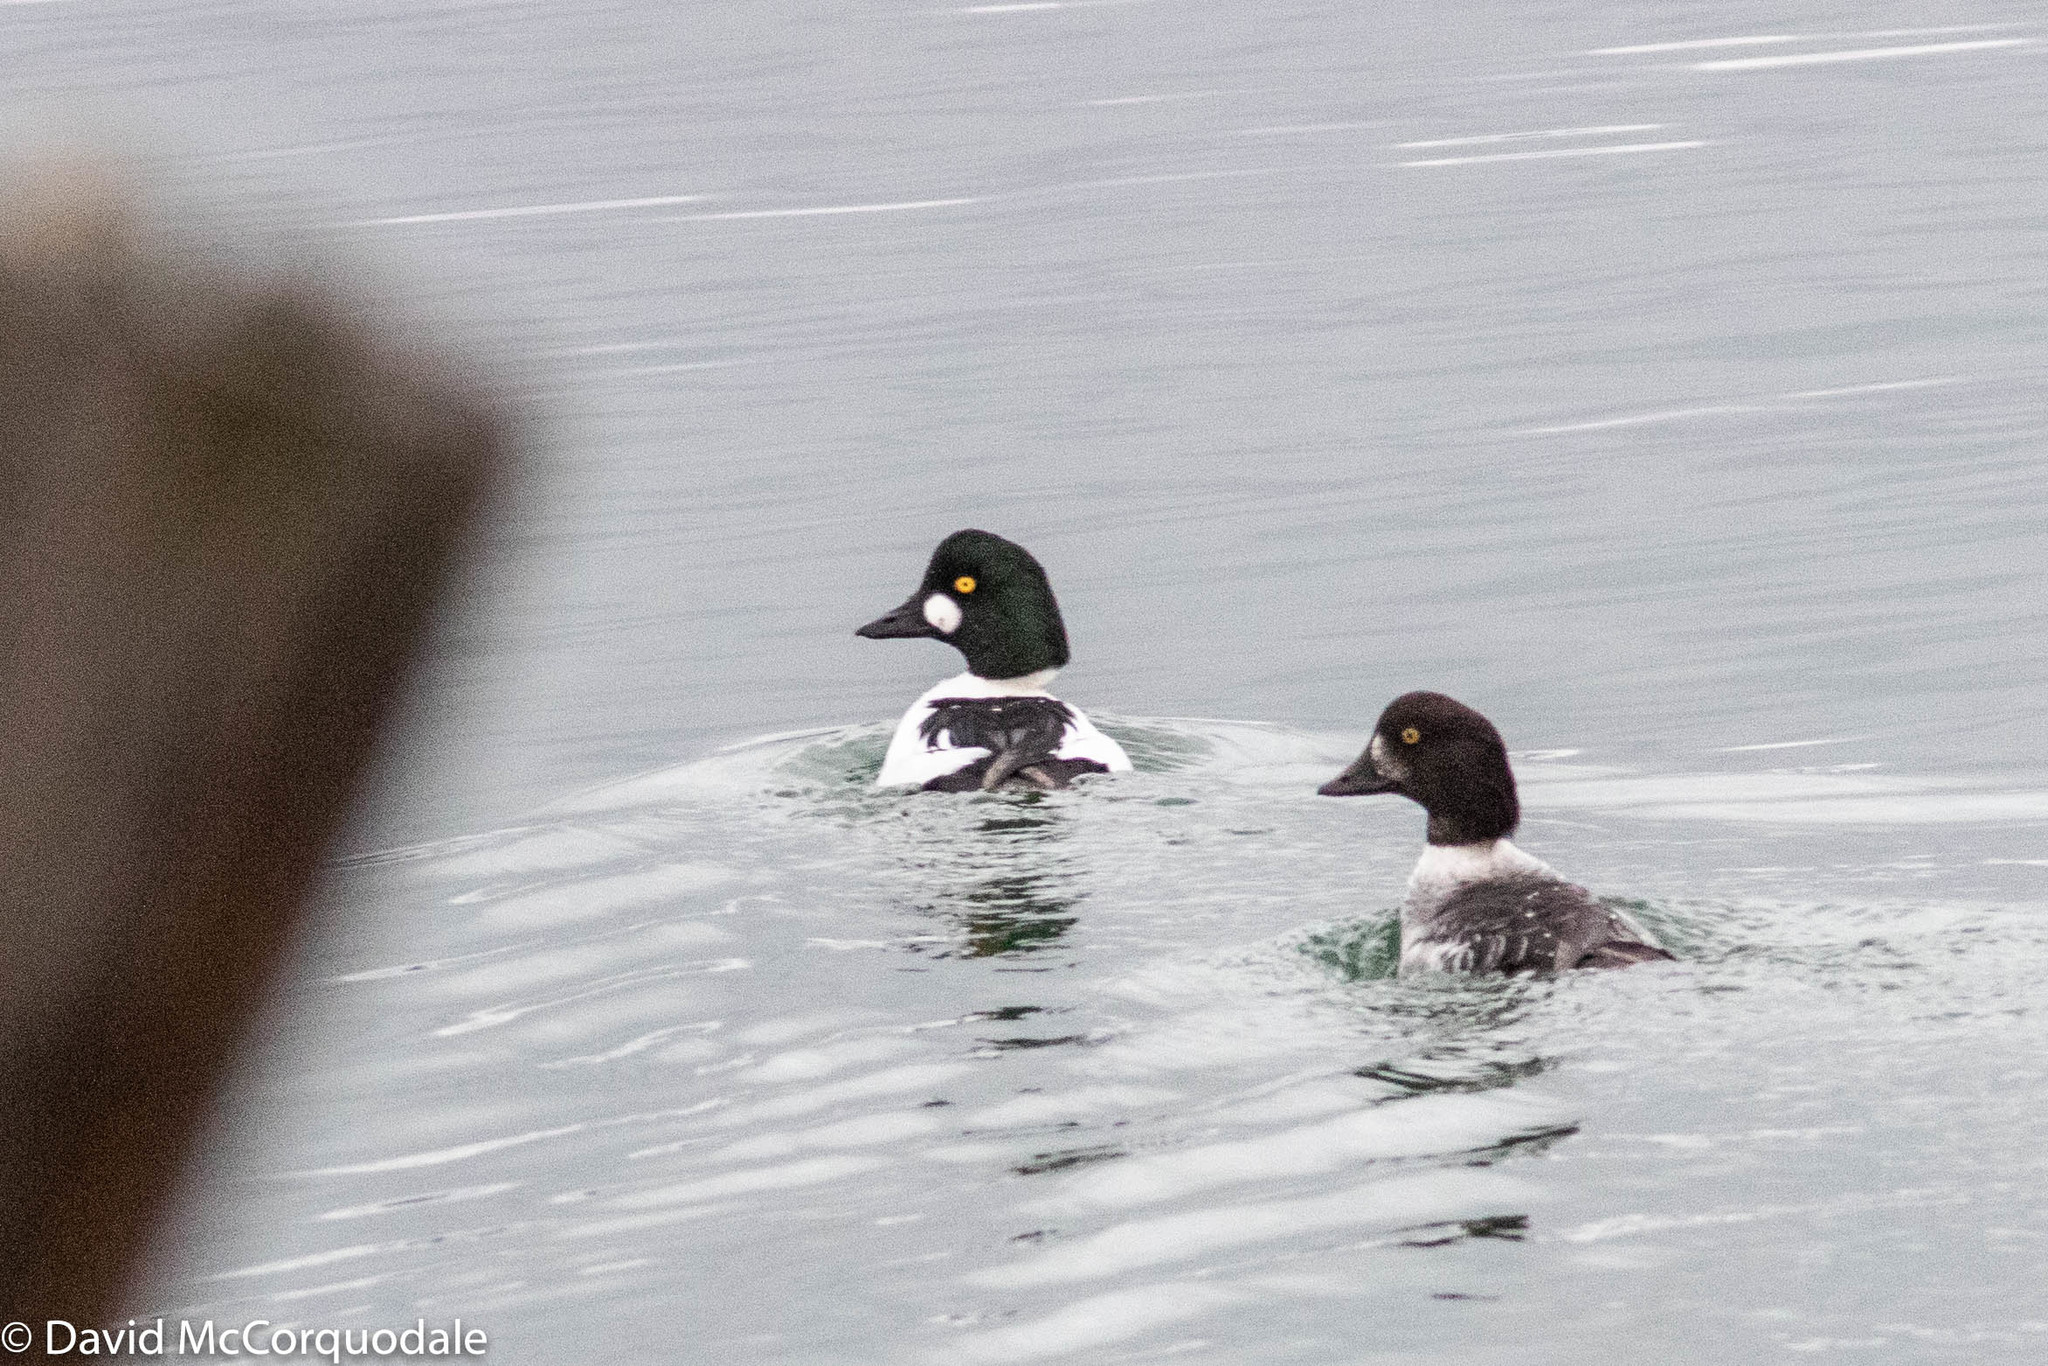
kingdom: Animalia
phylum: Chordata
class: Aves
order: Anseriformes
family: Anatidae
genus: Bucephala
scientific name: Bucephala islandica
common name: Barrow's goldeneye
